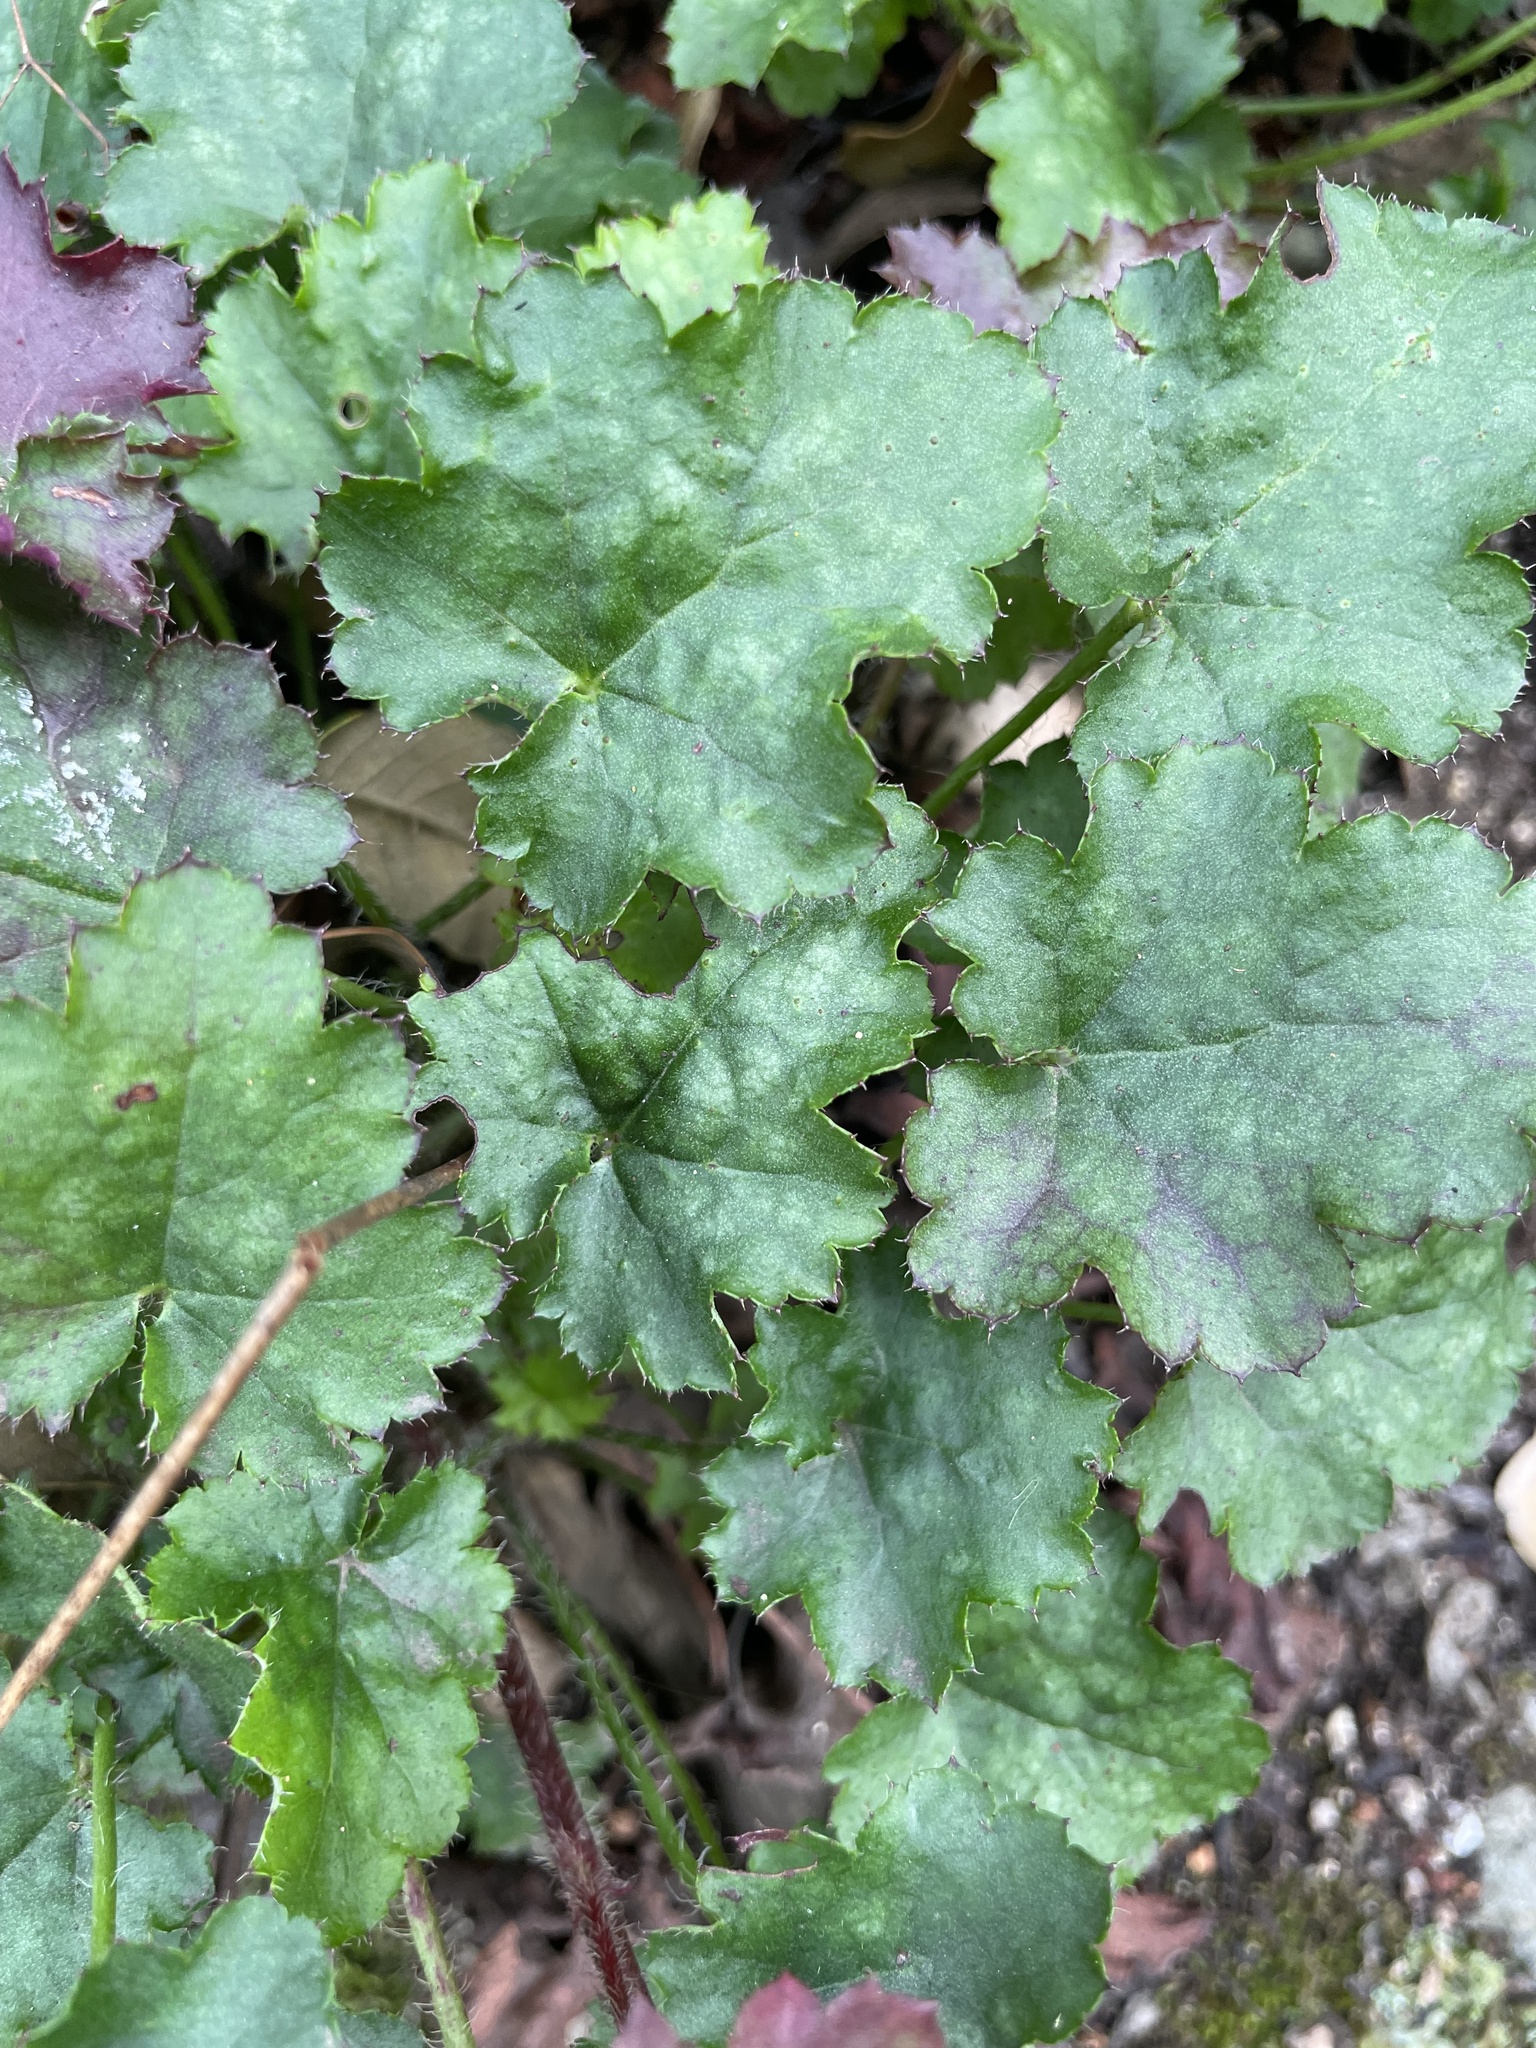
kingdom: Plantae
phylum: Tracheophyta
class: Magnoliopsida
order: Saxifragales
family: Saxifragaceae
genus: Heuchera
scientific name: Heuchera micrantha
